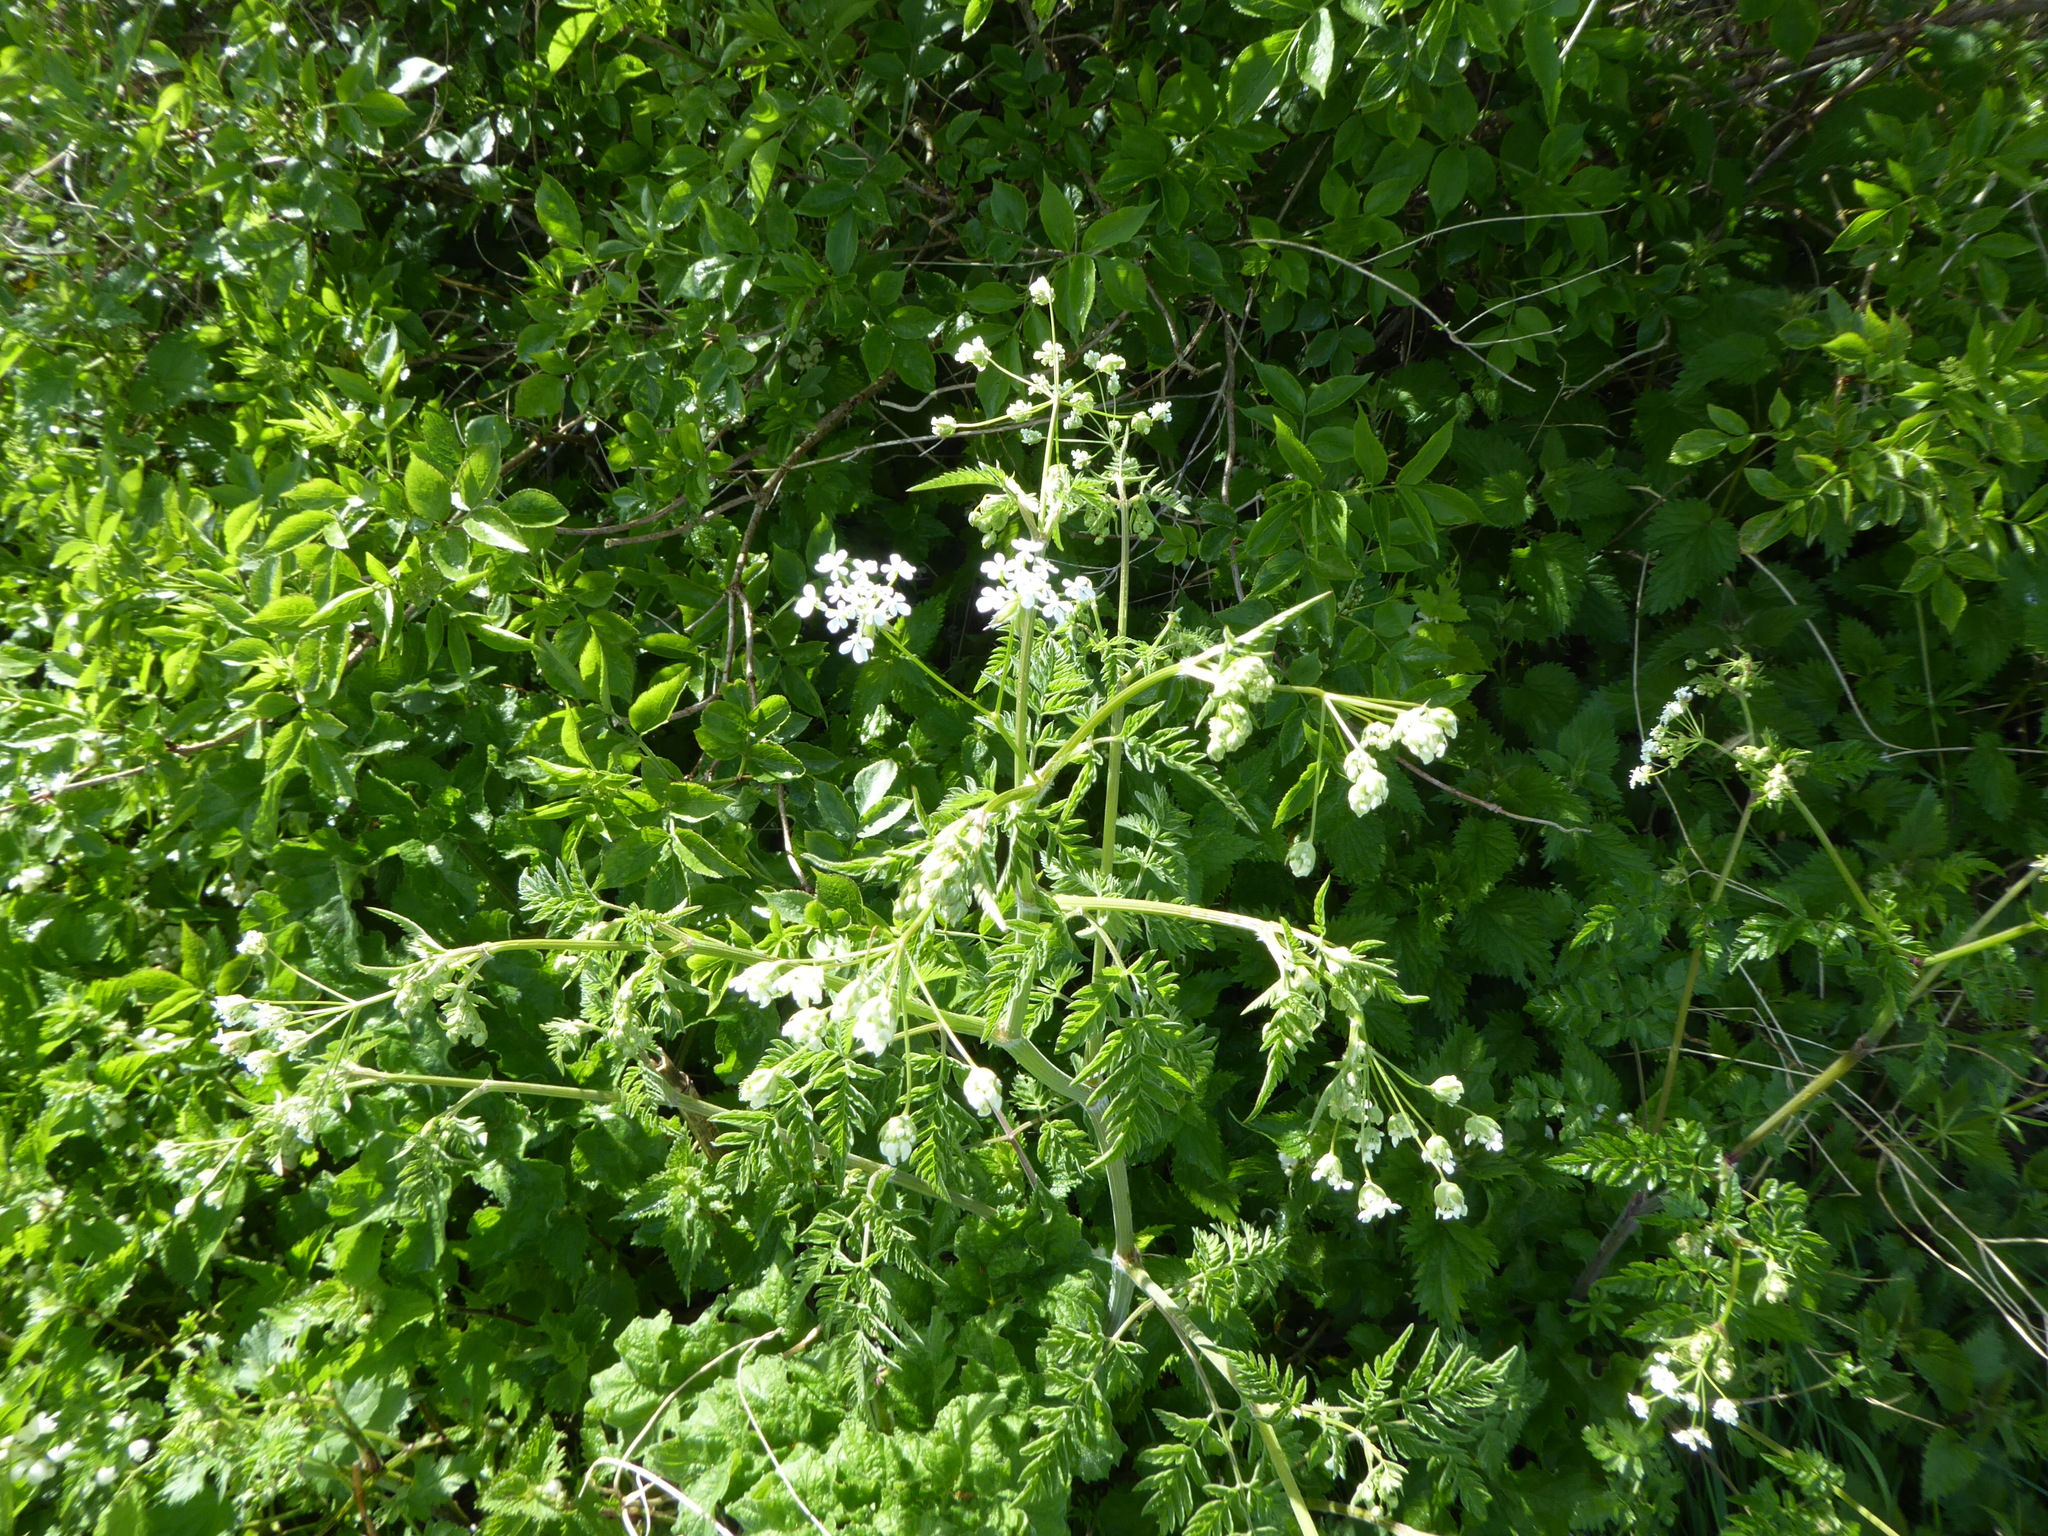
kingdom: Plantae
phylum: Tracheophyta
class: Magnoliopsida
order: Apiales
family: Apiaceae
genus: Anthriscus
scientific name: Anthriscus sylvestris
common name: Cow parsley
